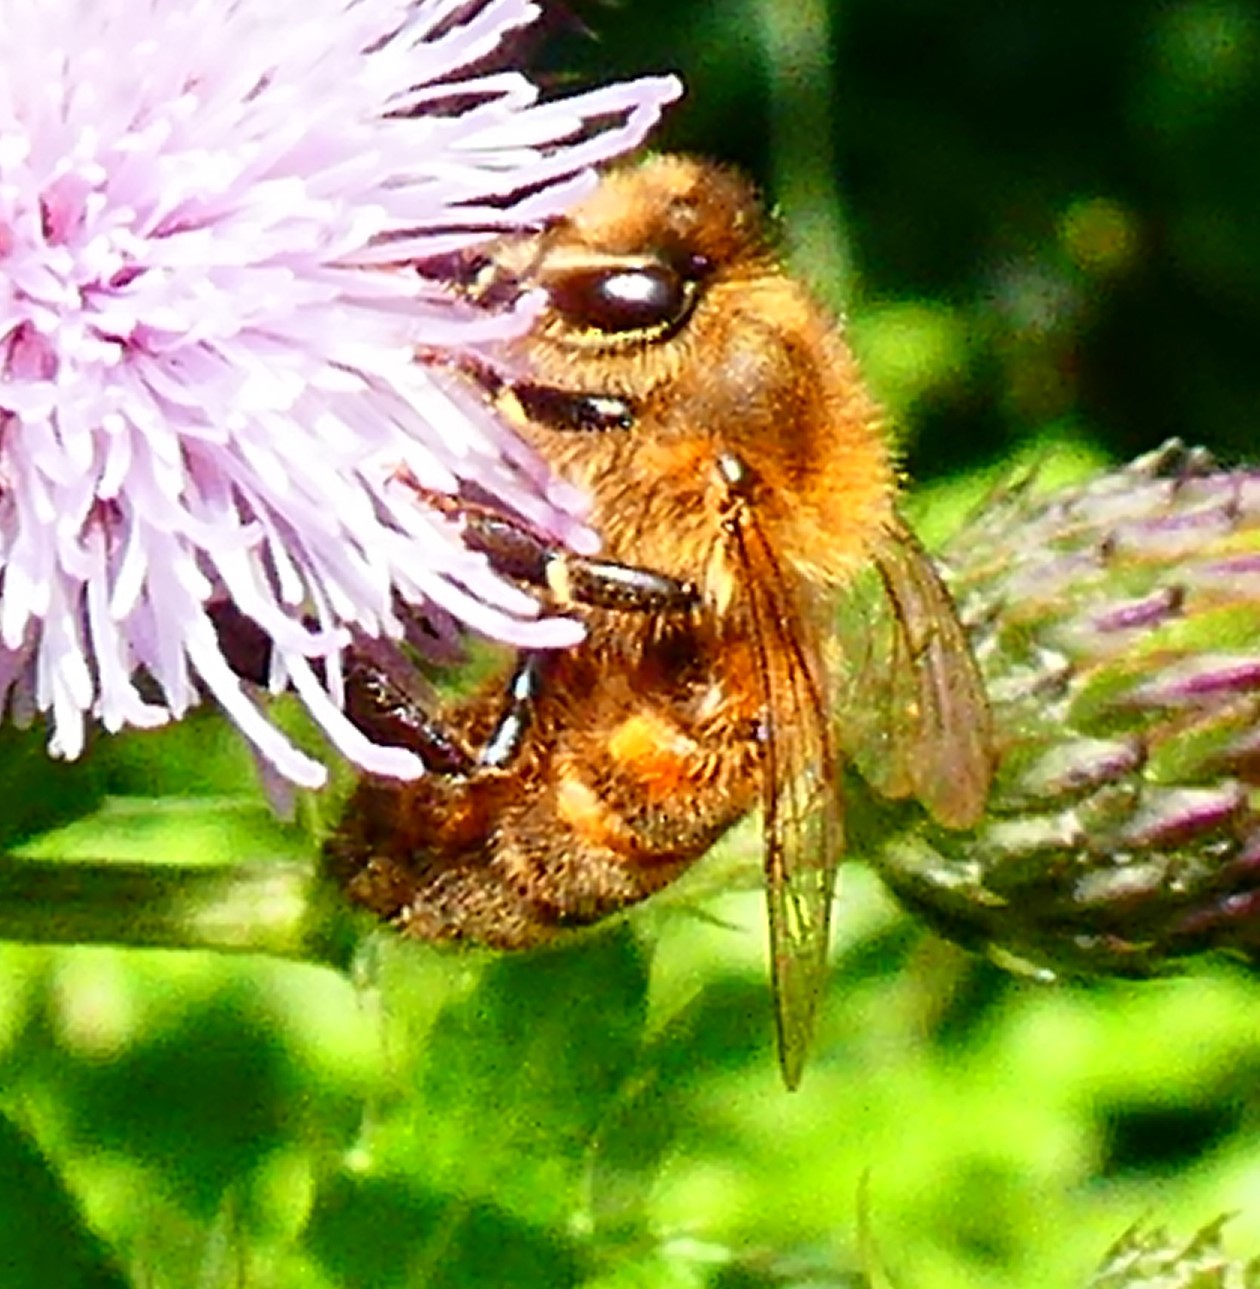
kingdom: Animalia
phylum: Arthropoda
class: Insecta
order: Hymenoptera
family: Apidae
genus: Apis
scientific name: Apis mellifera
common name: Honey bee
